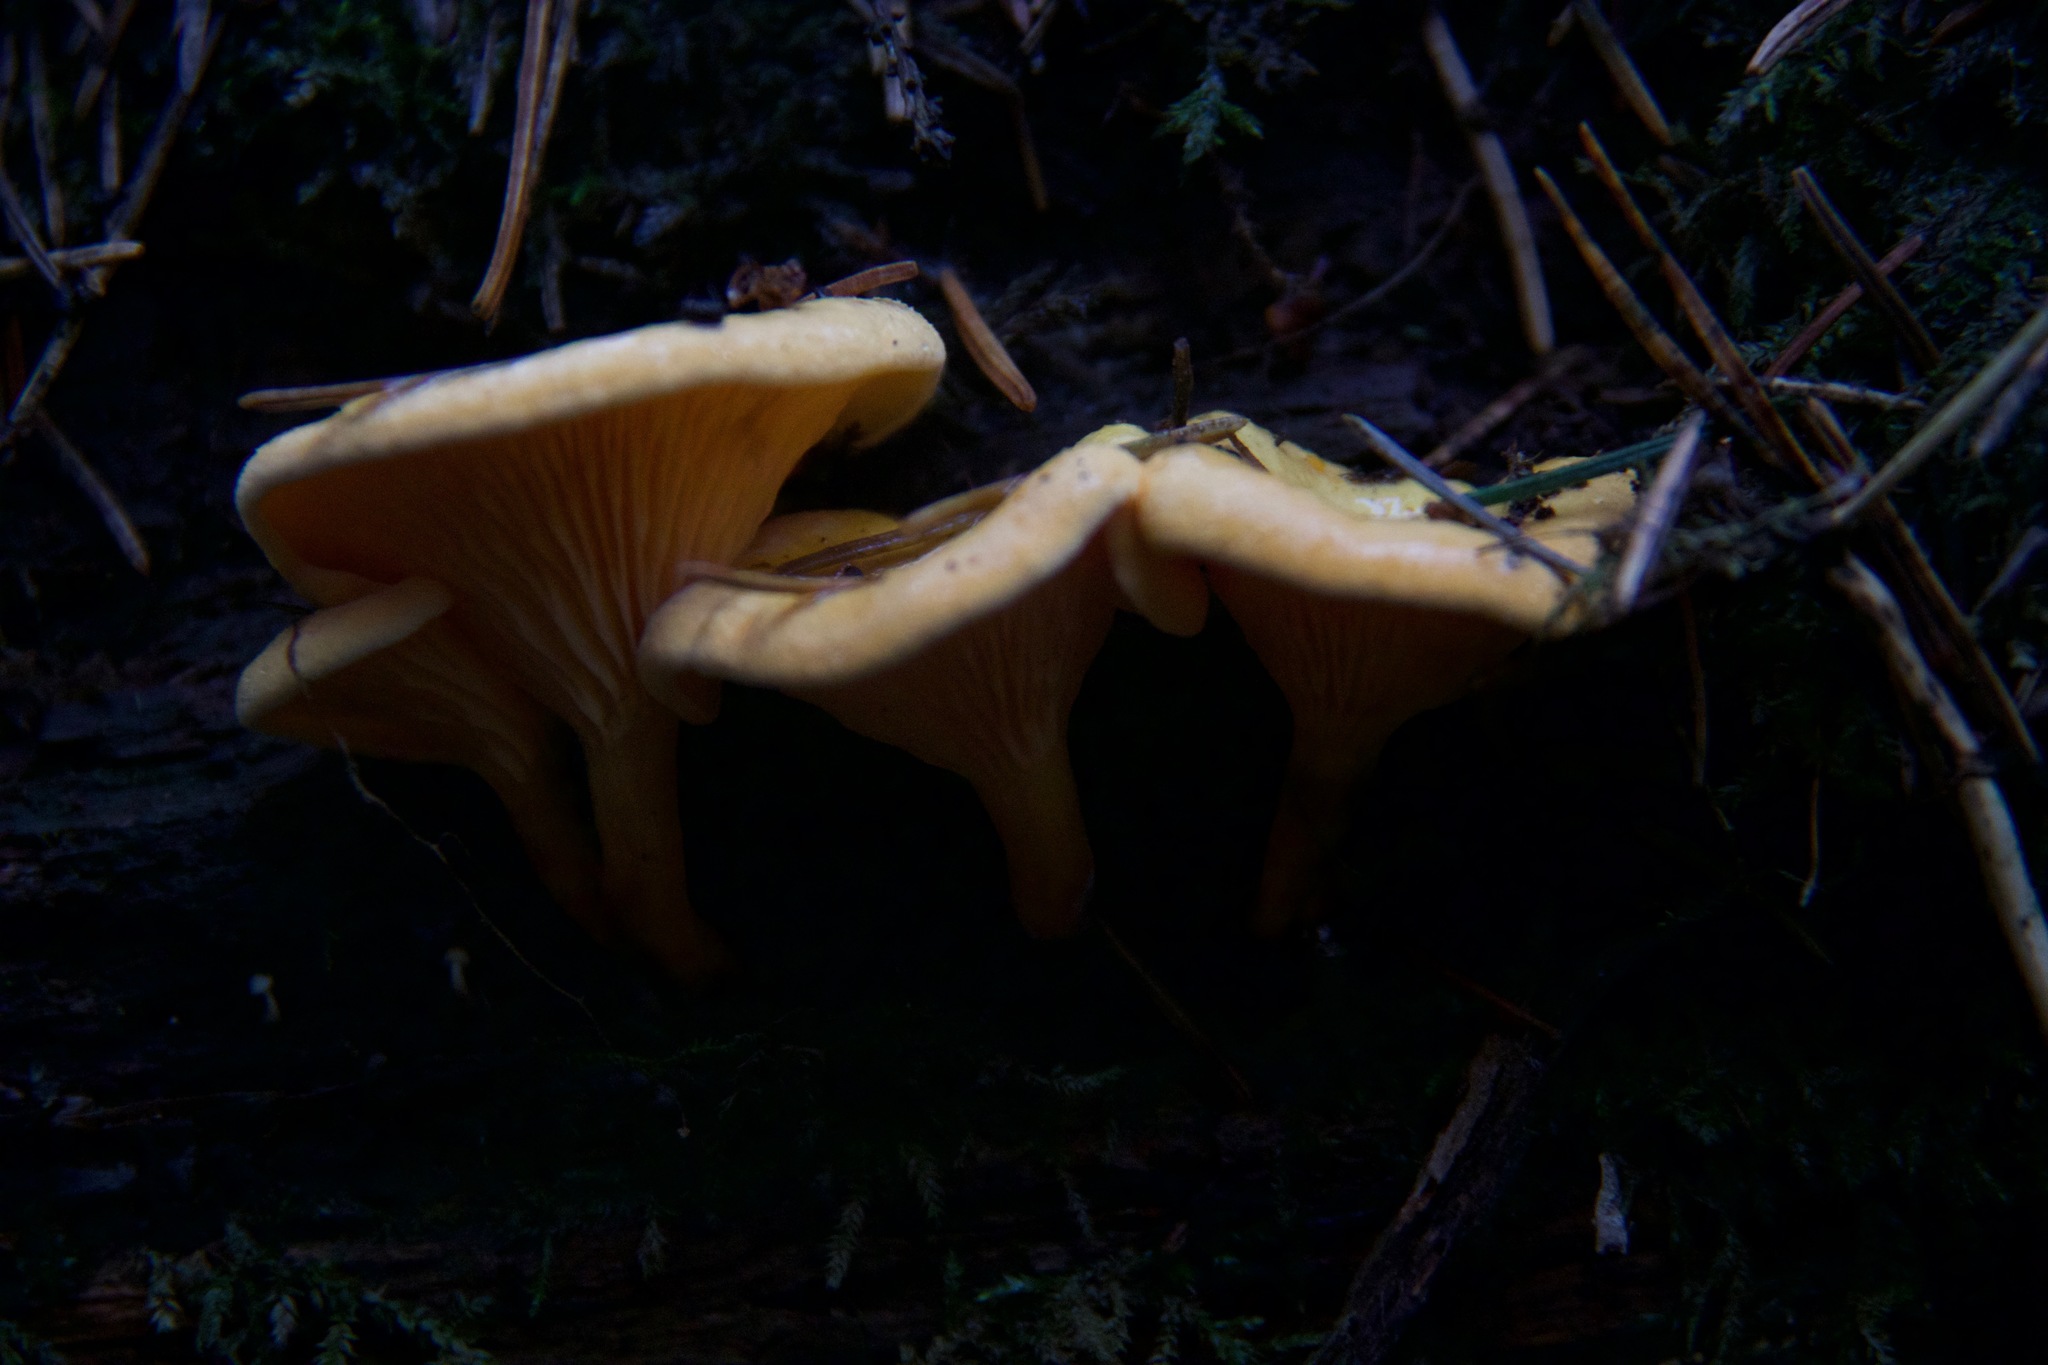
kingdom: Fungi
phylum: Basidiomycota
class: Agaricomycetes
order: Boletales
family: Hygrophoropsidaceae
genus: Hygrophoropsis
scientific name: Hygrophoropsis aurantiaca
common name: False chanterelle
